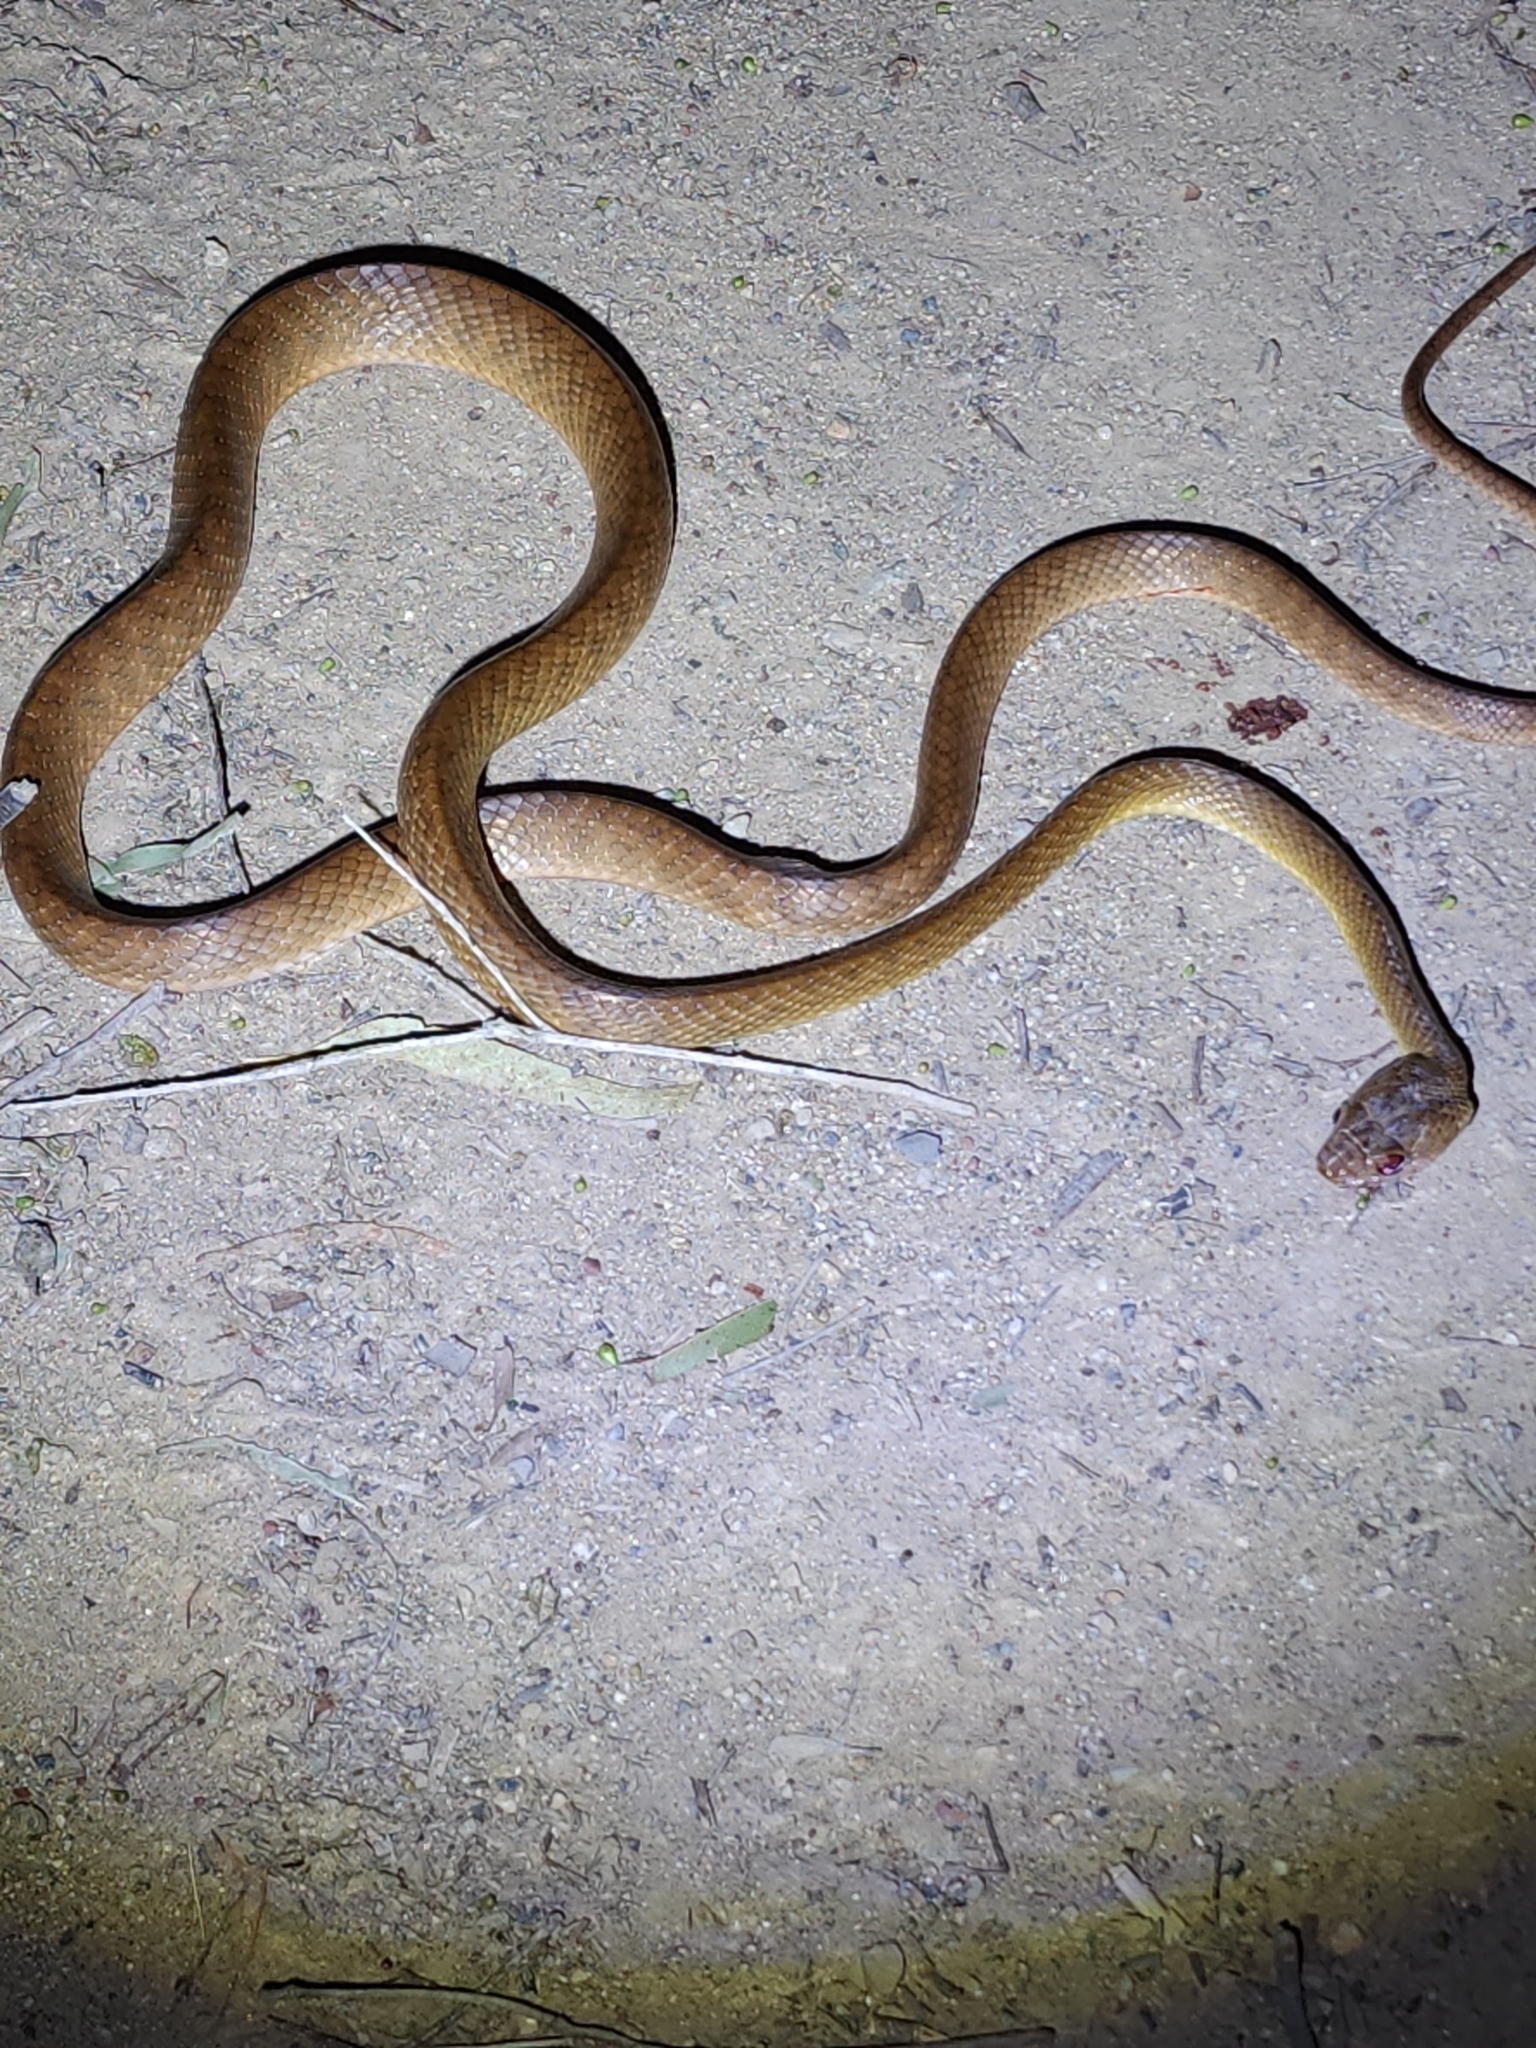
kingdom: Animalia
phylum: Chordata
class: Squamata
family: Colubridae
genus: Boiga
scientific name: Boiga irregularis
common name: Brown tree snake
